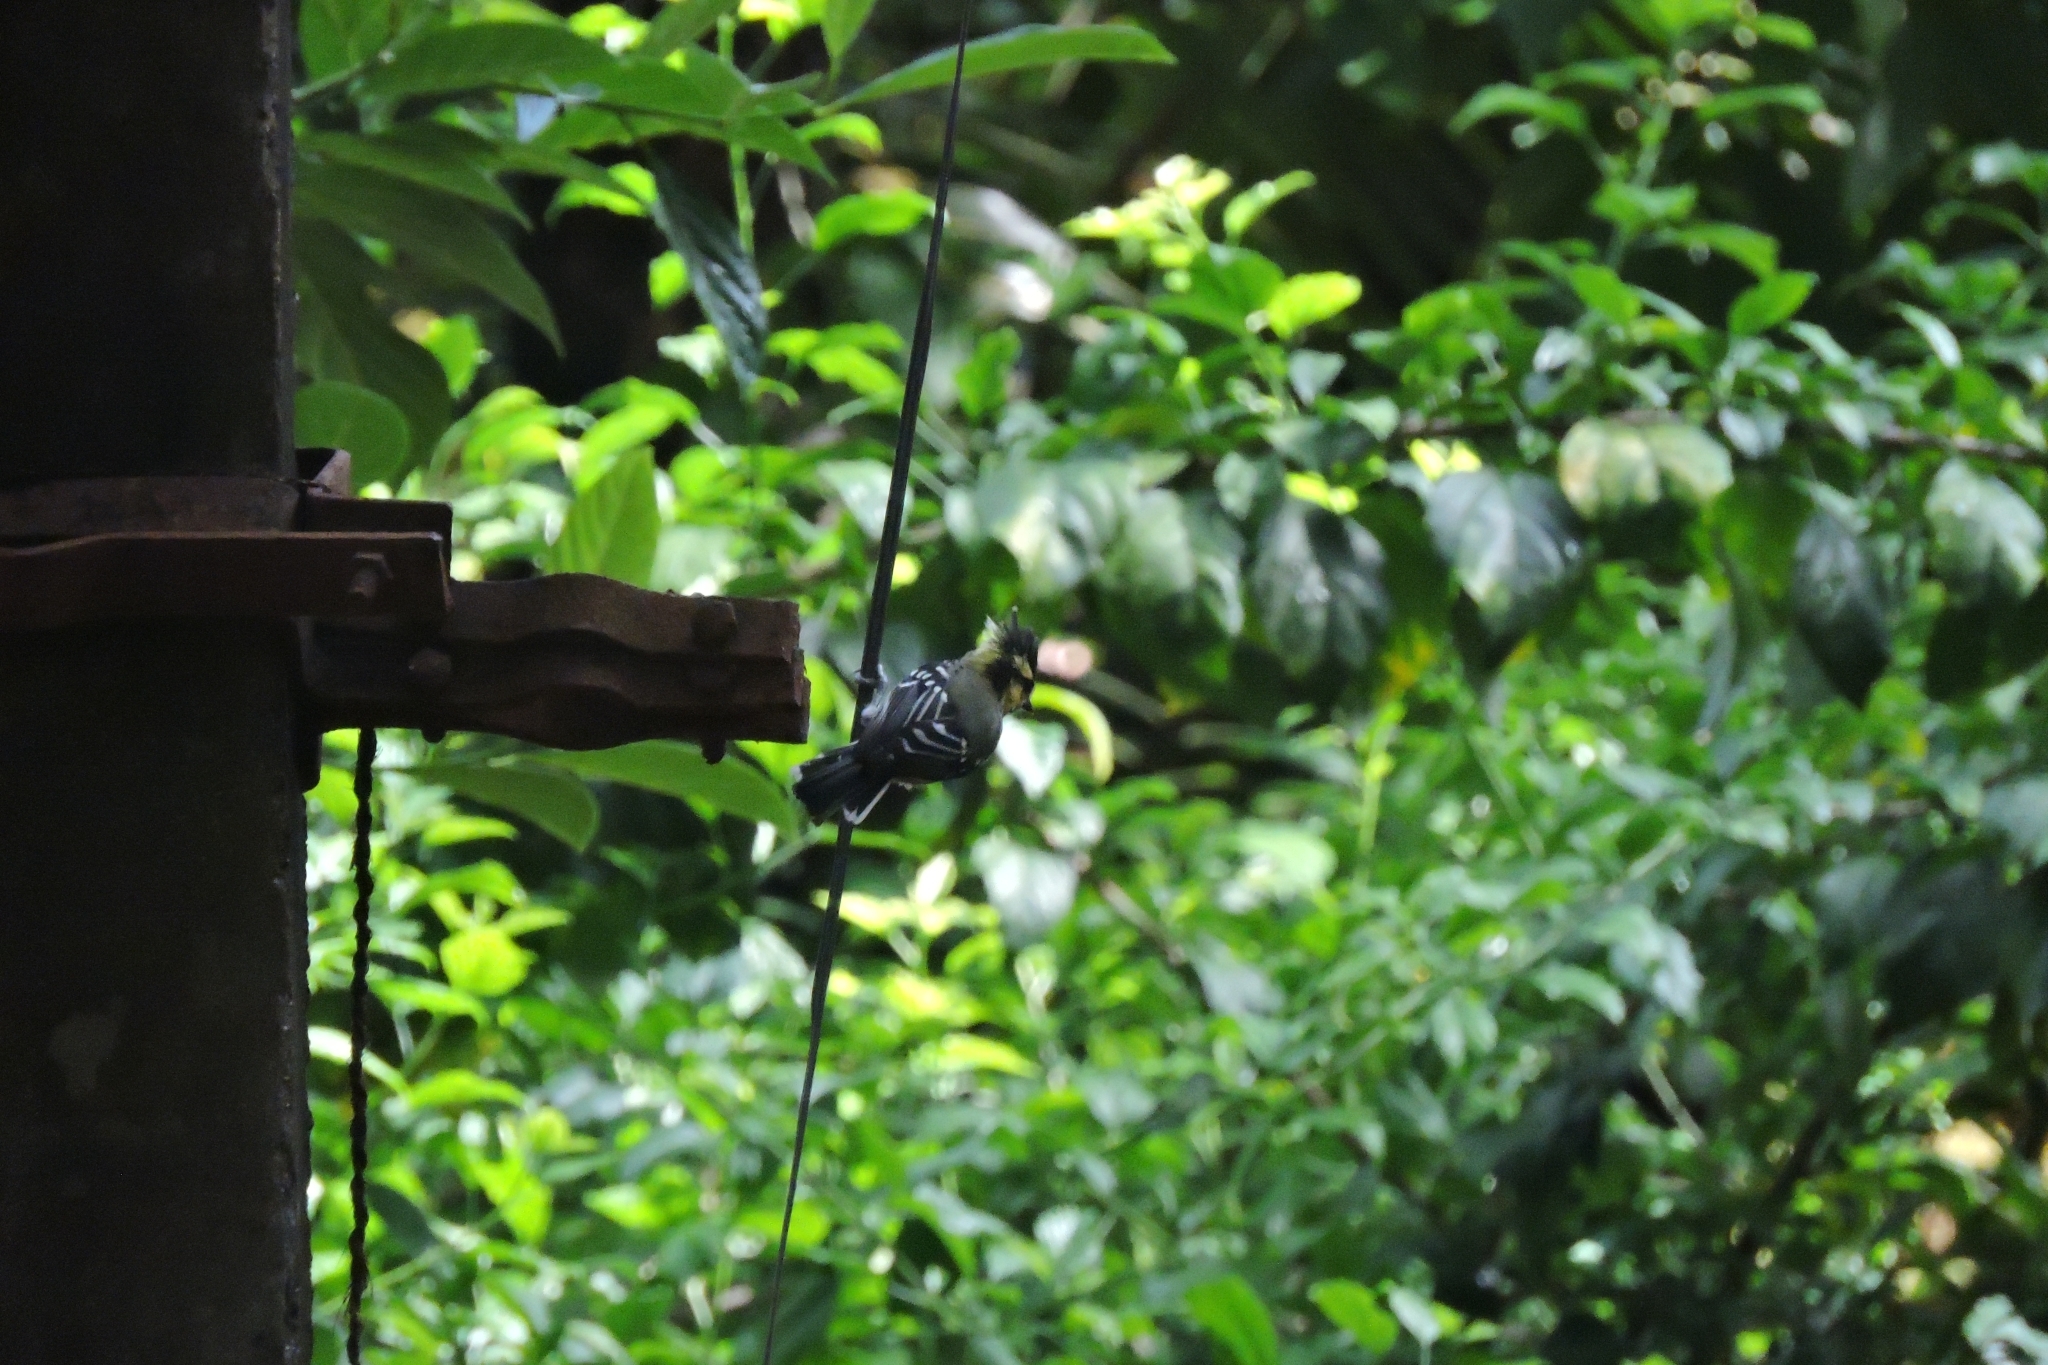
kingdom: Animalia
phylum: Chordata
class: Aves
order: Passeriformes
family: Paridae
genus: Parus
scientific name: Parus aplonotus
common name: Indian black-lored tit
